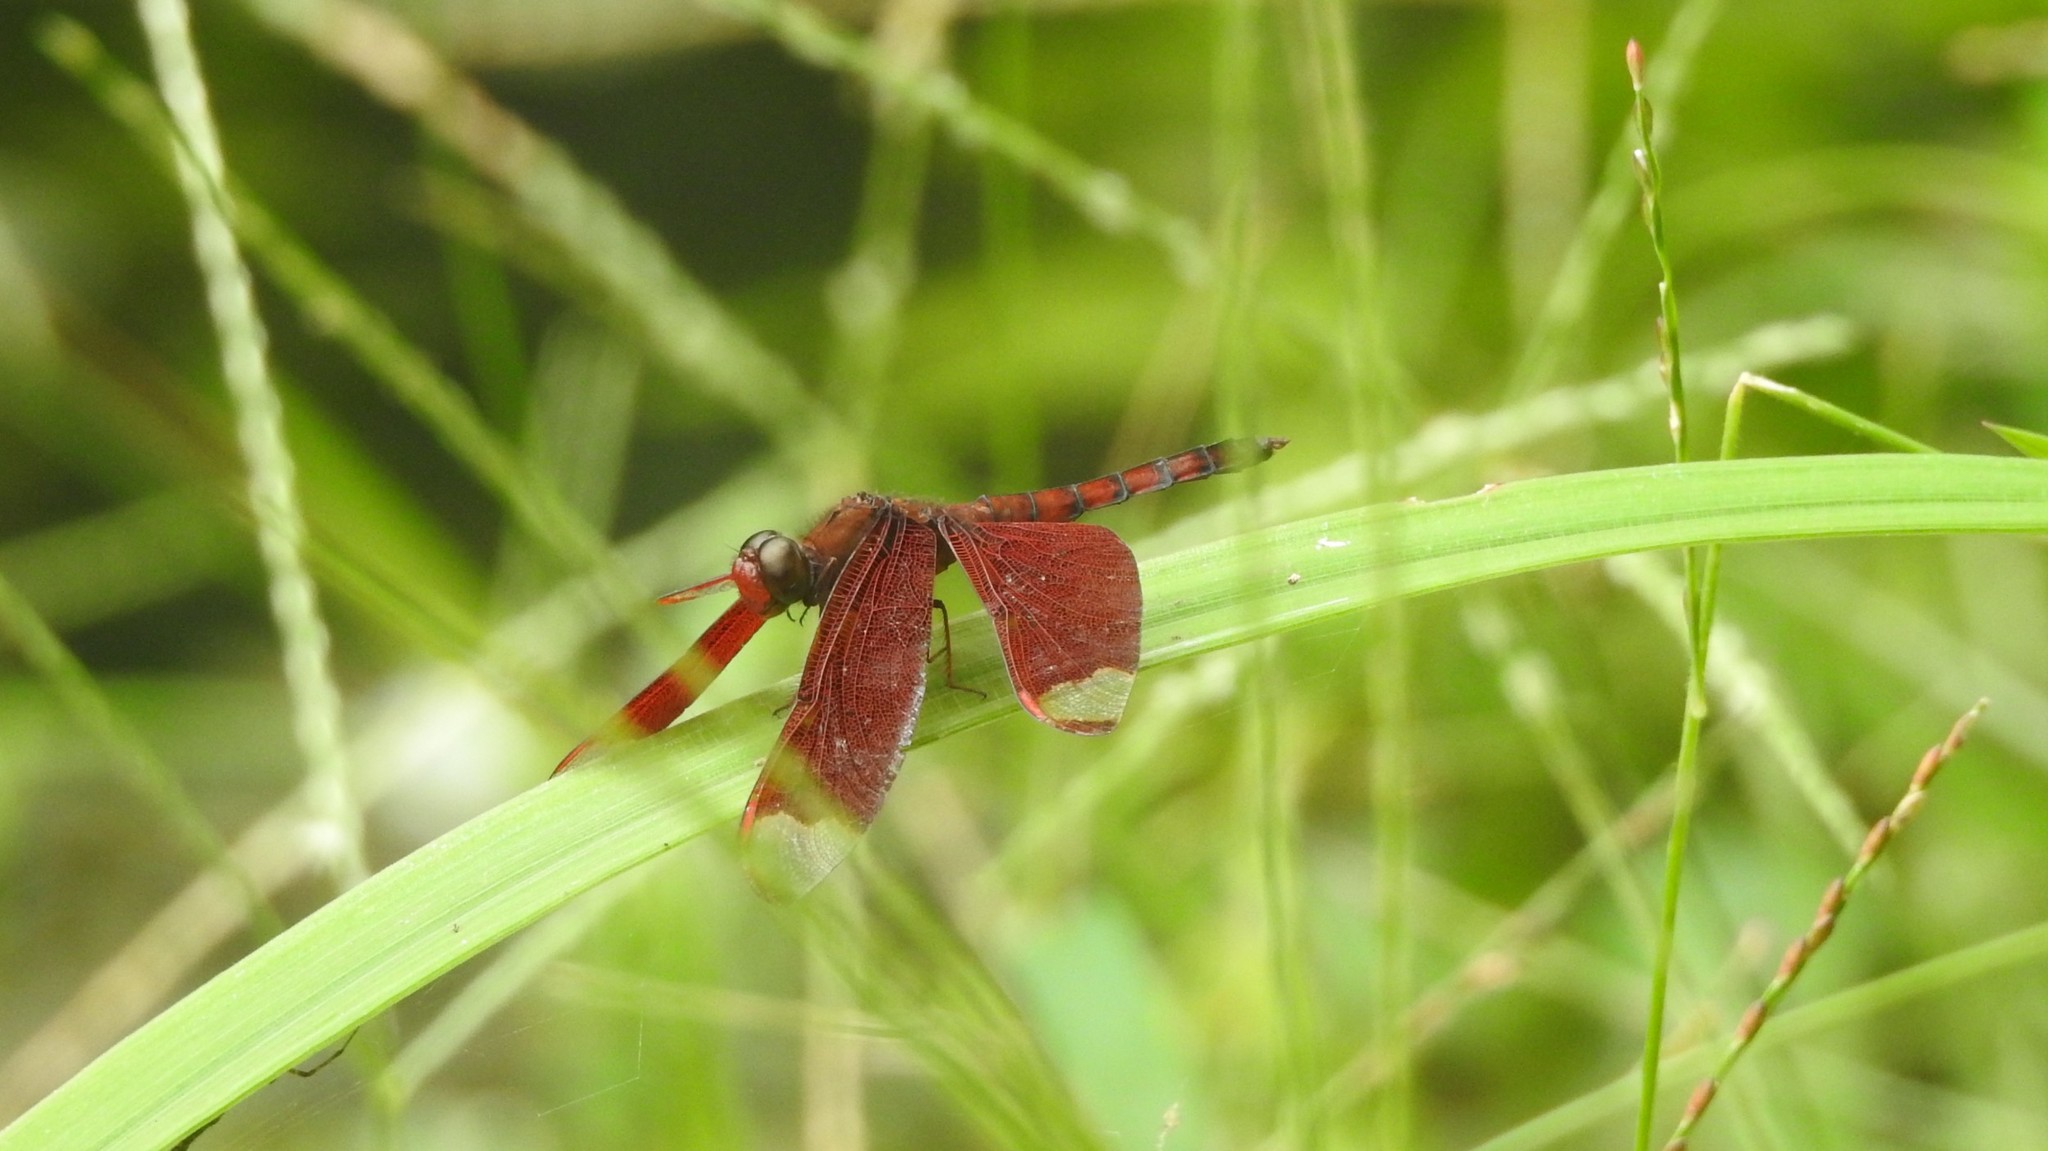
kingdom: Animalia
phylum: Arthropoda
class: Insecta
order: Odonata
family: Libellulidae
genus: Neurothemis
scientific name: Neurothemis fulvia
